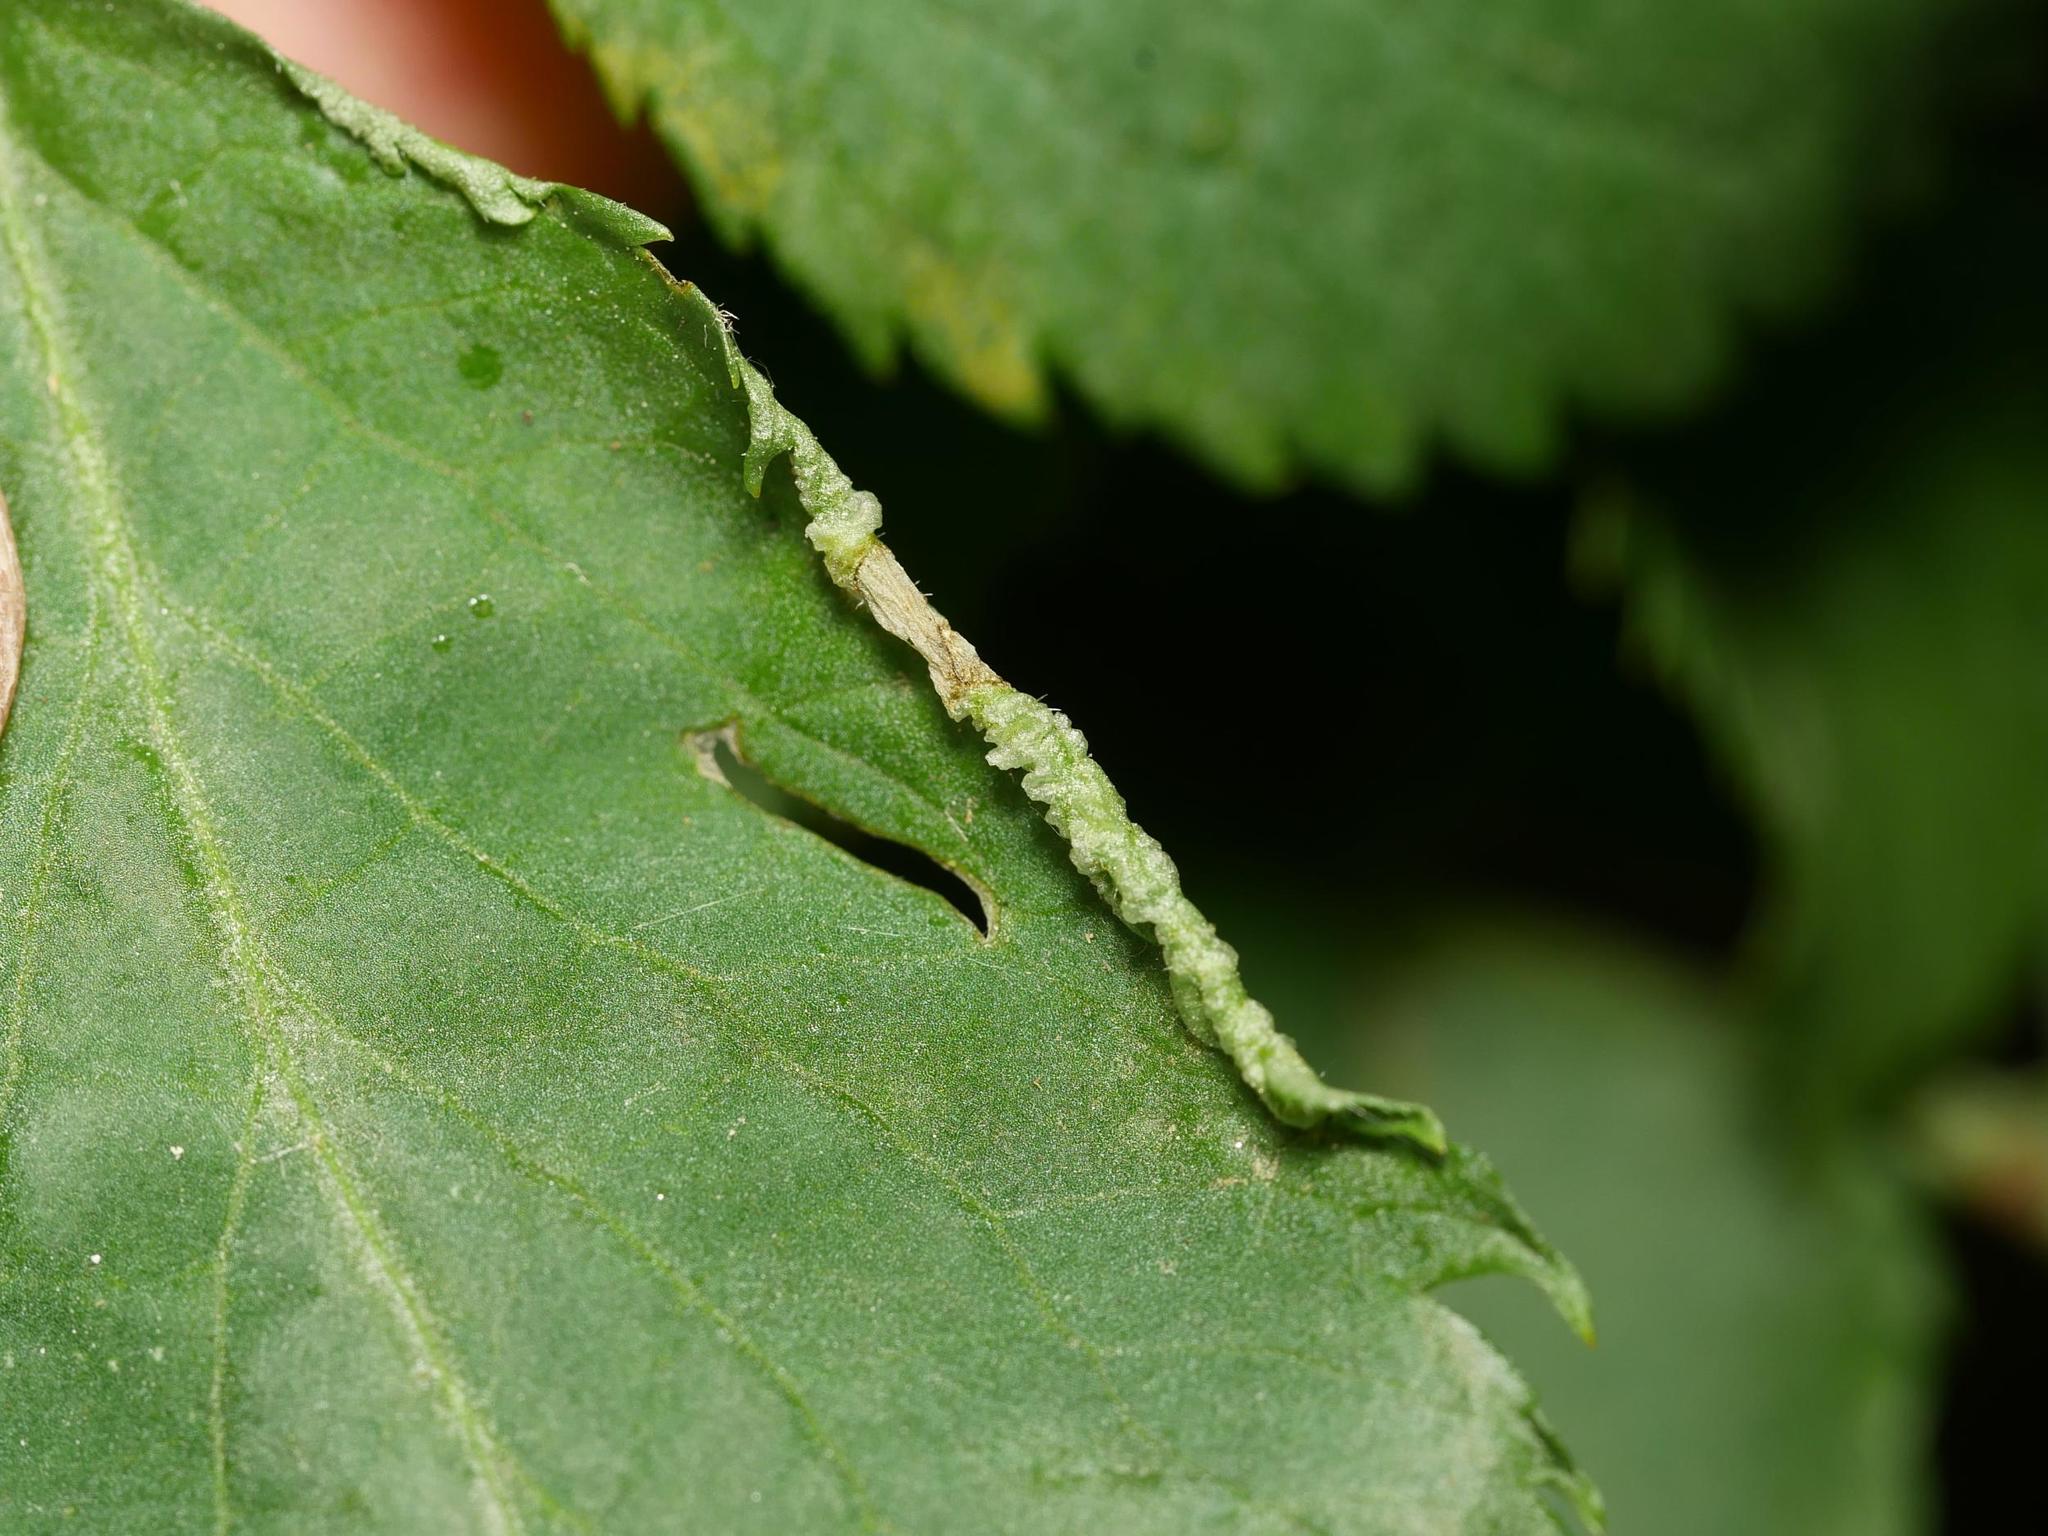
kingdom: Animalia
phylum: Arthropoda
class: Arachnida
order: Trombidiformes
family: Eriophyidae
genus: Epitrimerus
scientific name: Epitrimerus trilobus
